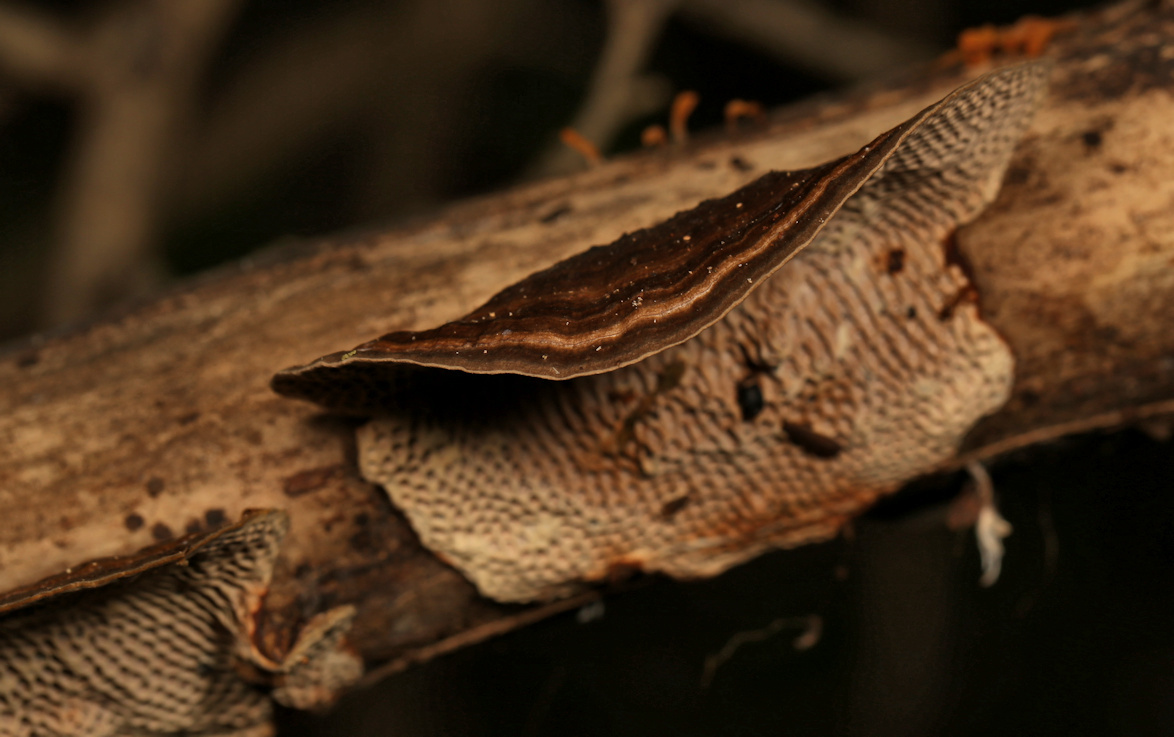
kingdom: Fungi
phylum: Basidiomycota
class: Agaricomycetes
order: Polyporales
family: Polyporaceae
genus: Pseudofavolus
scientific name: Pseudofavolus tenuis
